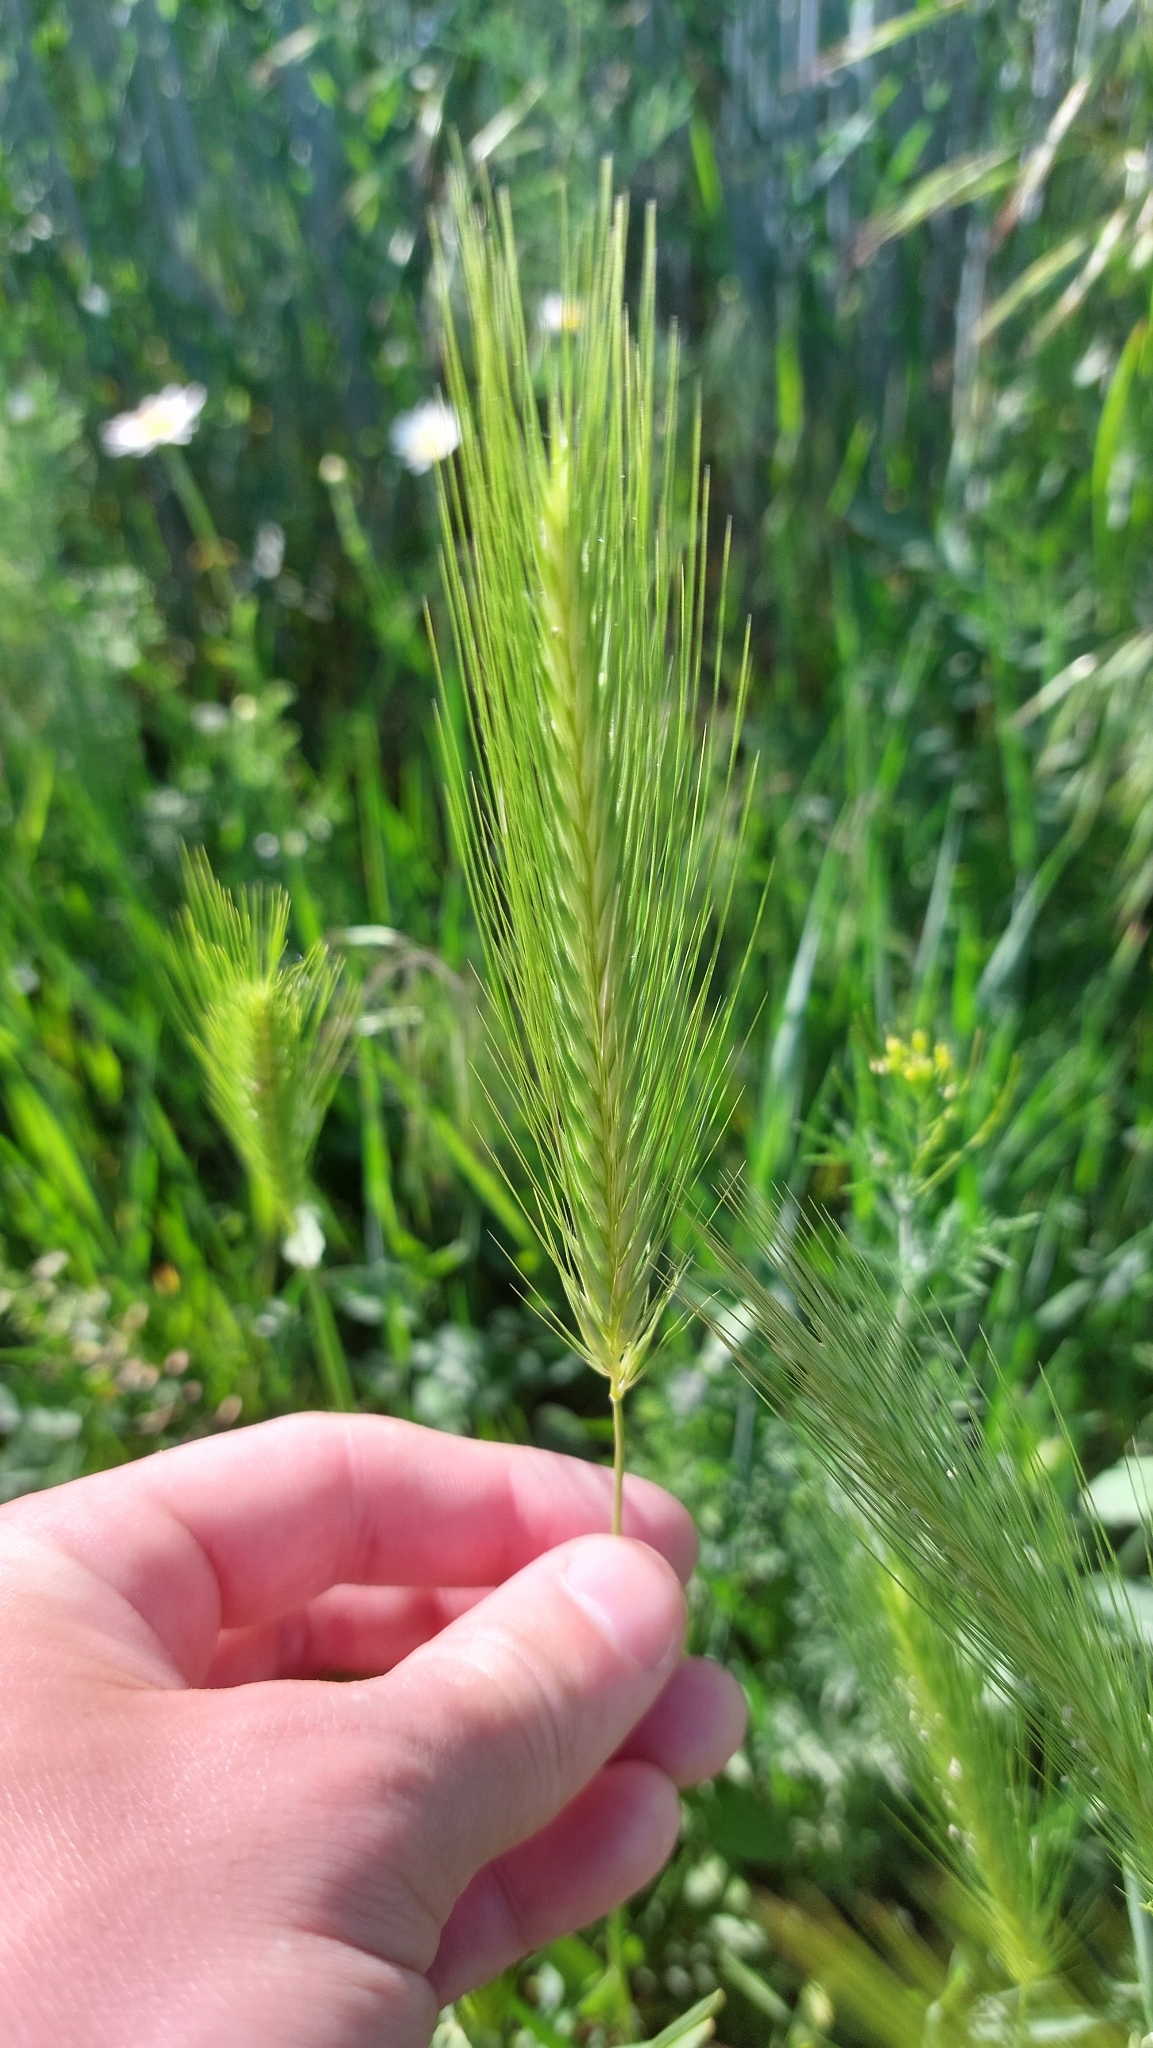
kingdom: Plantae
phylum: Tracheophyta
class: Liliopsida
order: Poales
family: Poaceae
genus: Hordeum
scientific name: Hordeum murinum
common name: Wall barley
